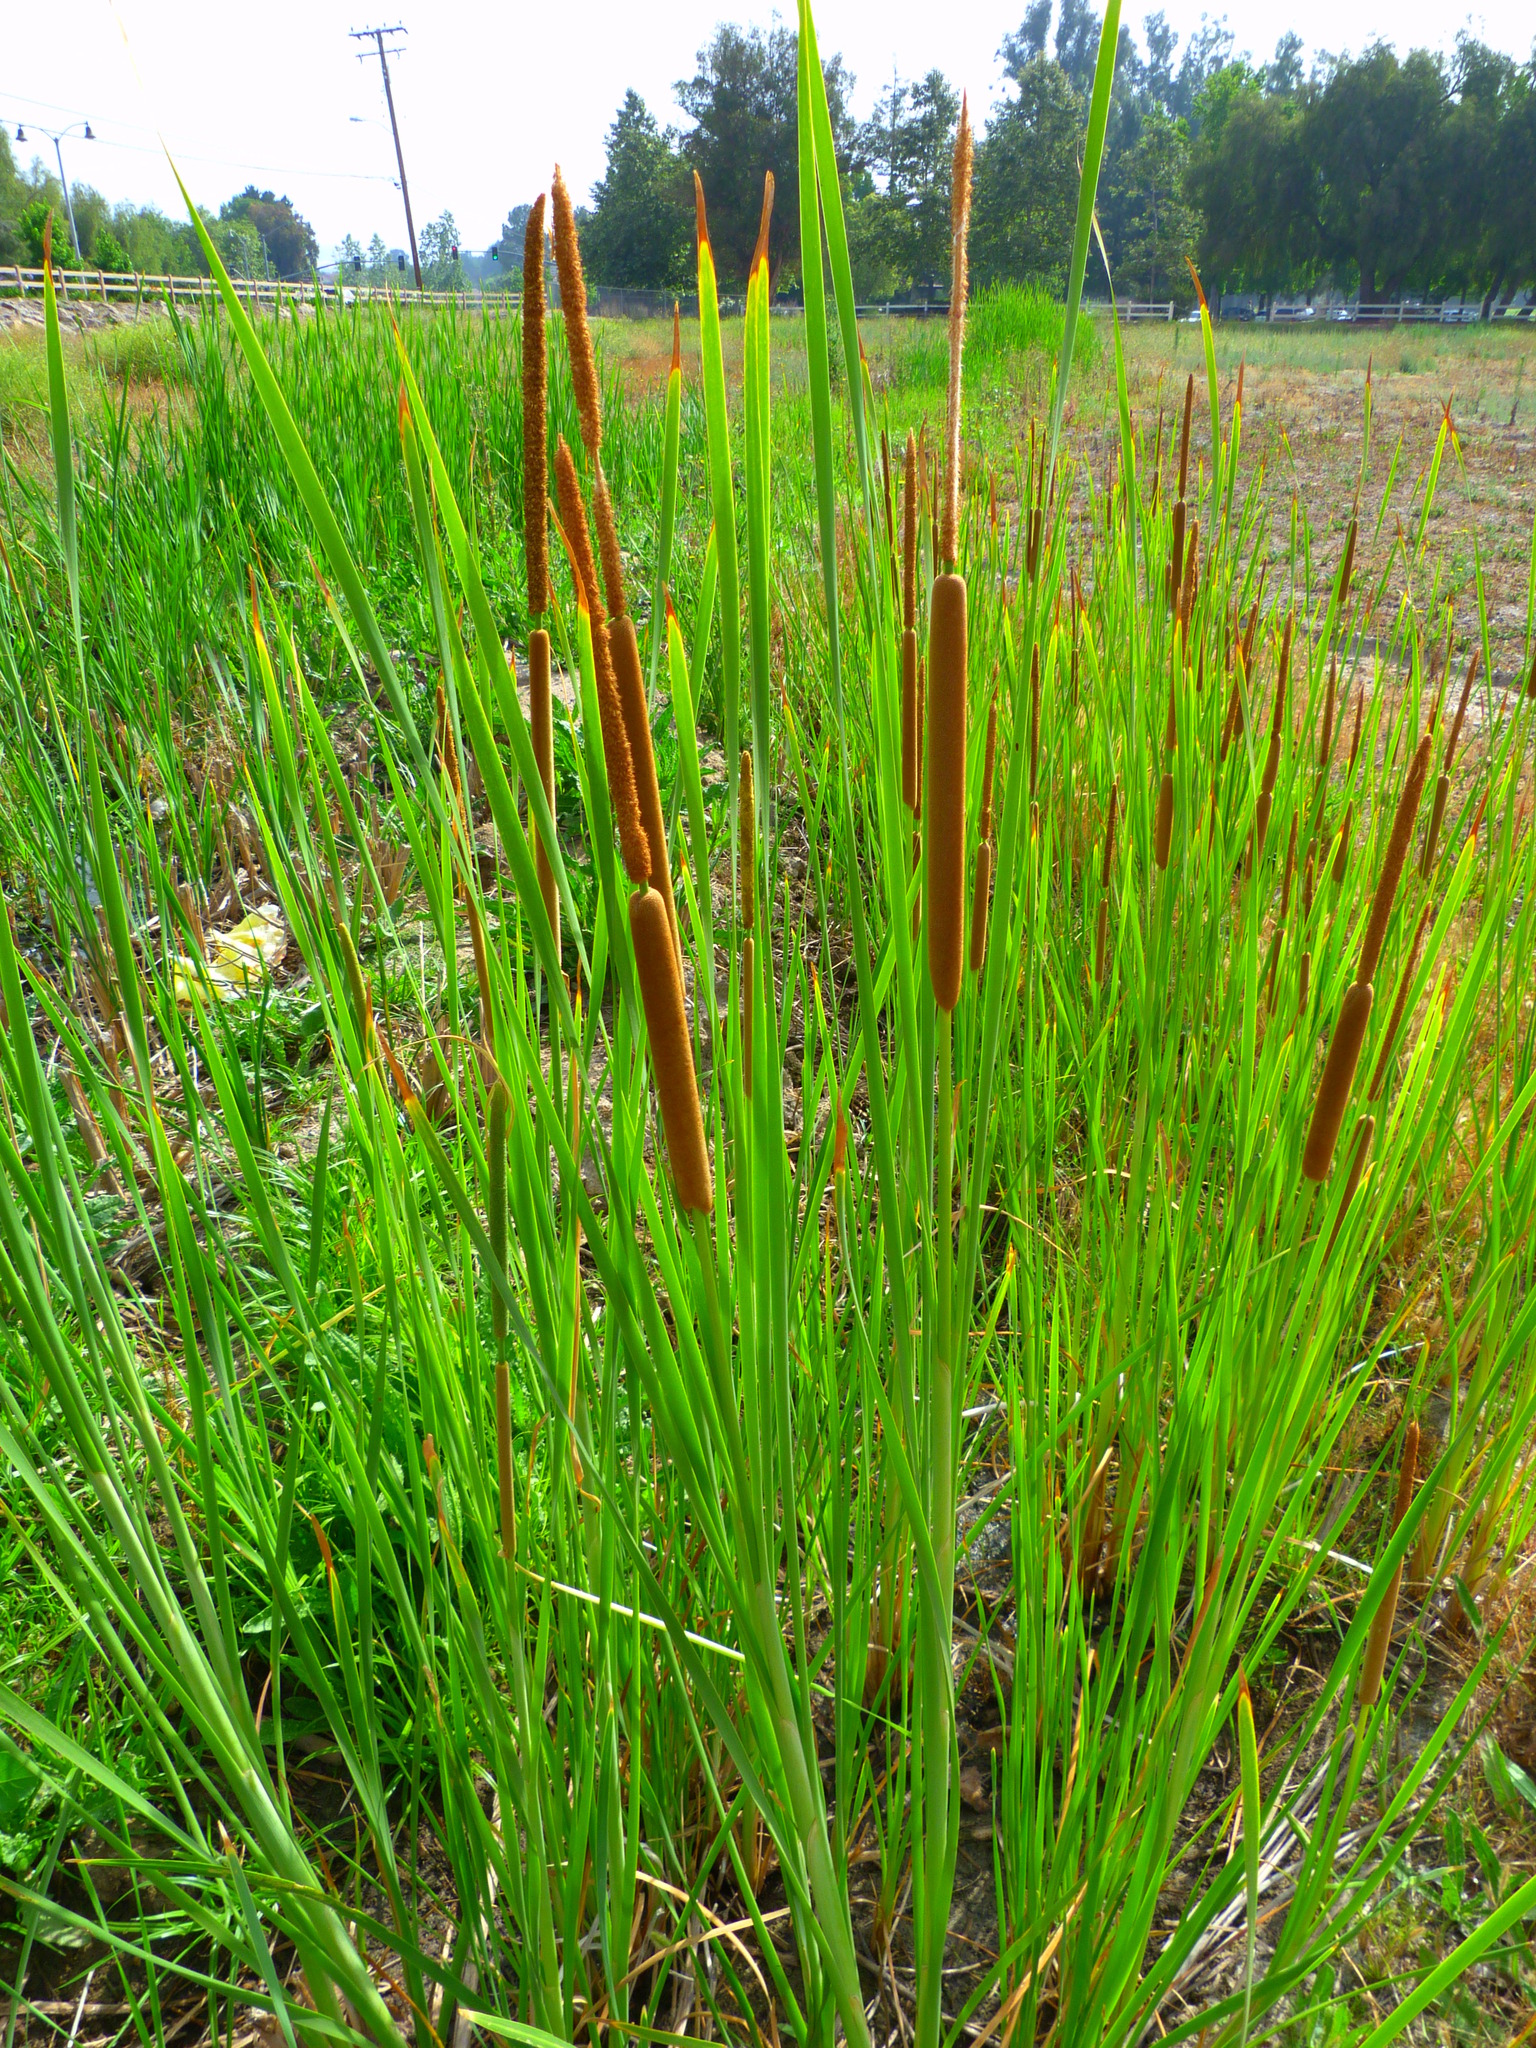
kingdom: Plantae
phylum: Tracheophyta
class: Liliopsida
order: Poales
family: Typhaceae
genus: Typha
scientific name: Typha domingensis
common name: Southern cattail
